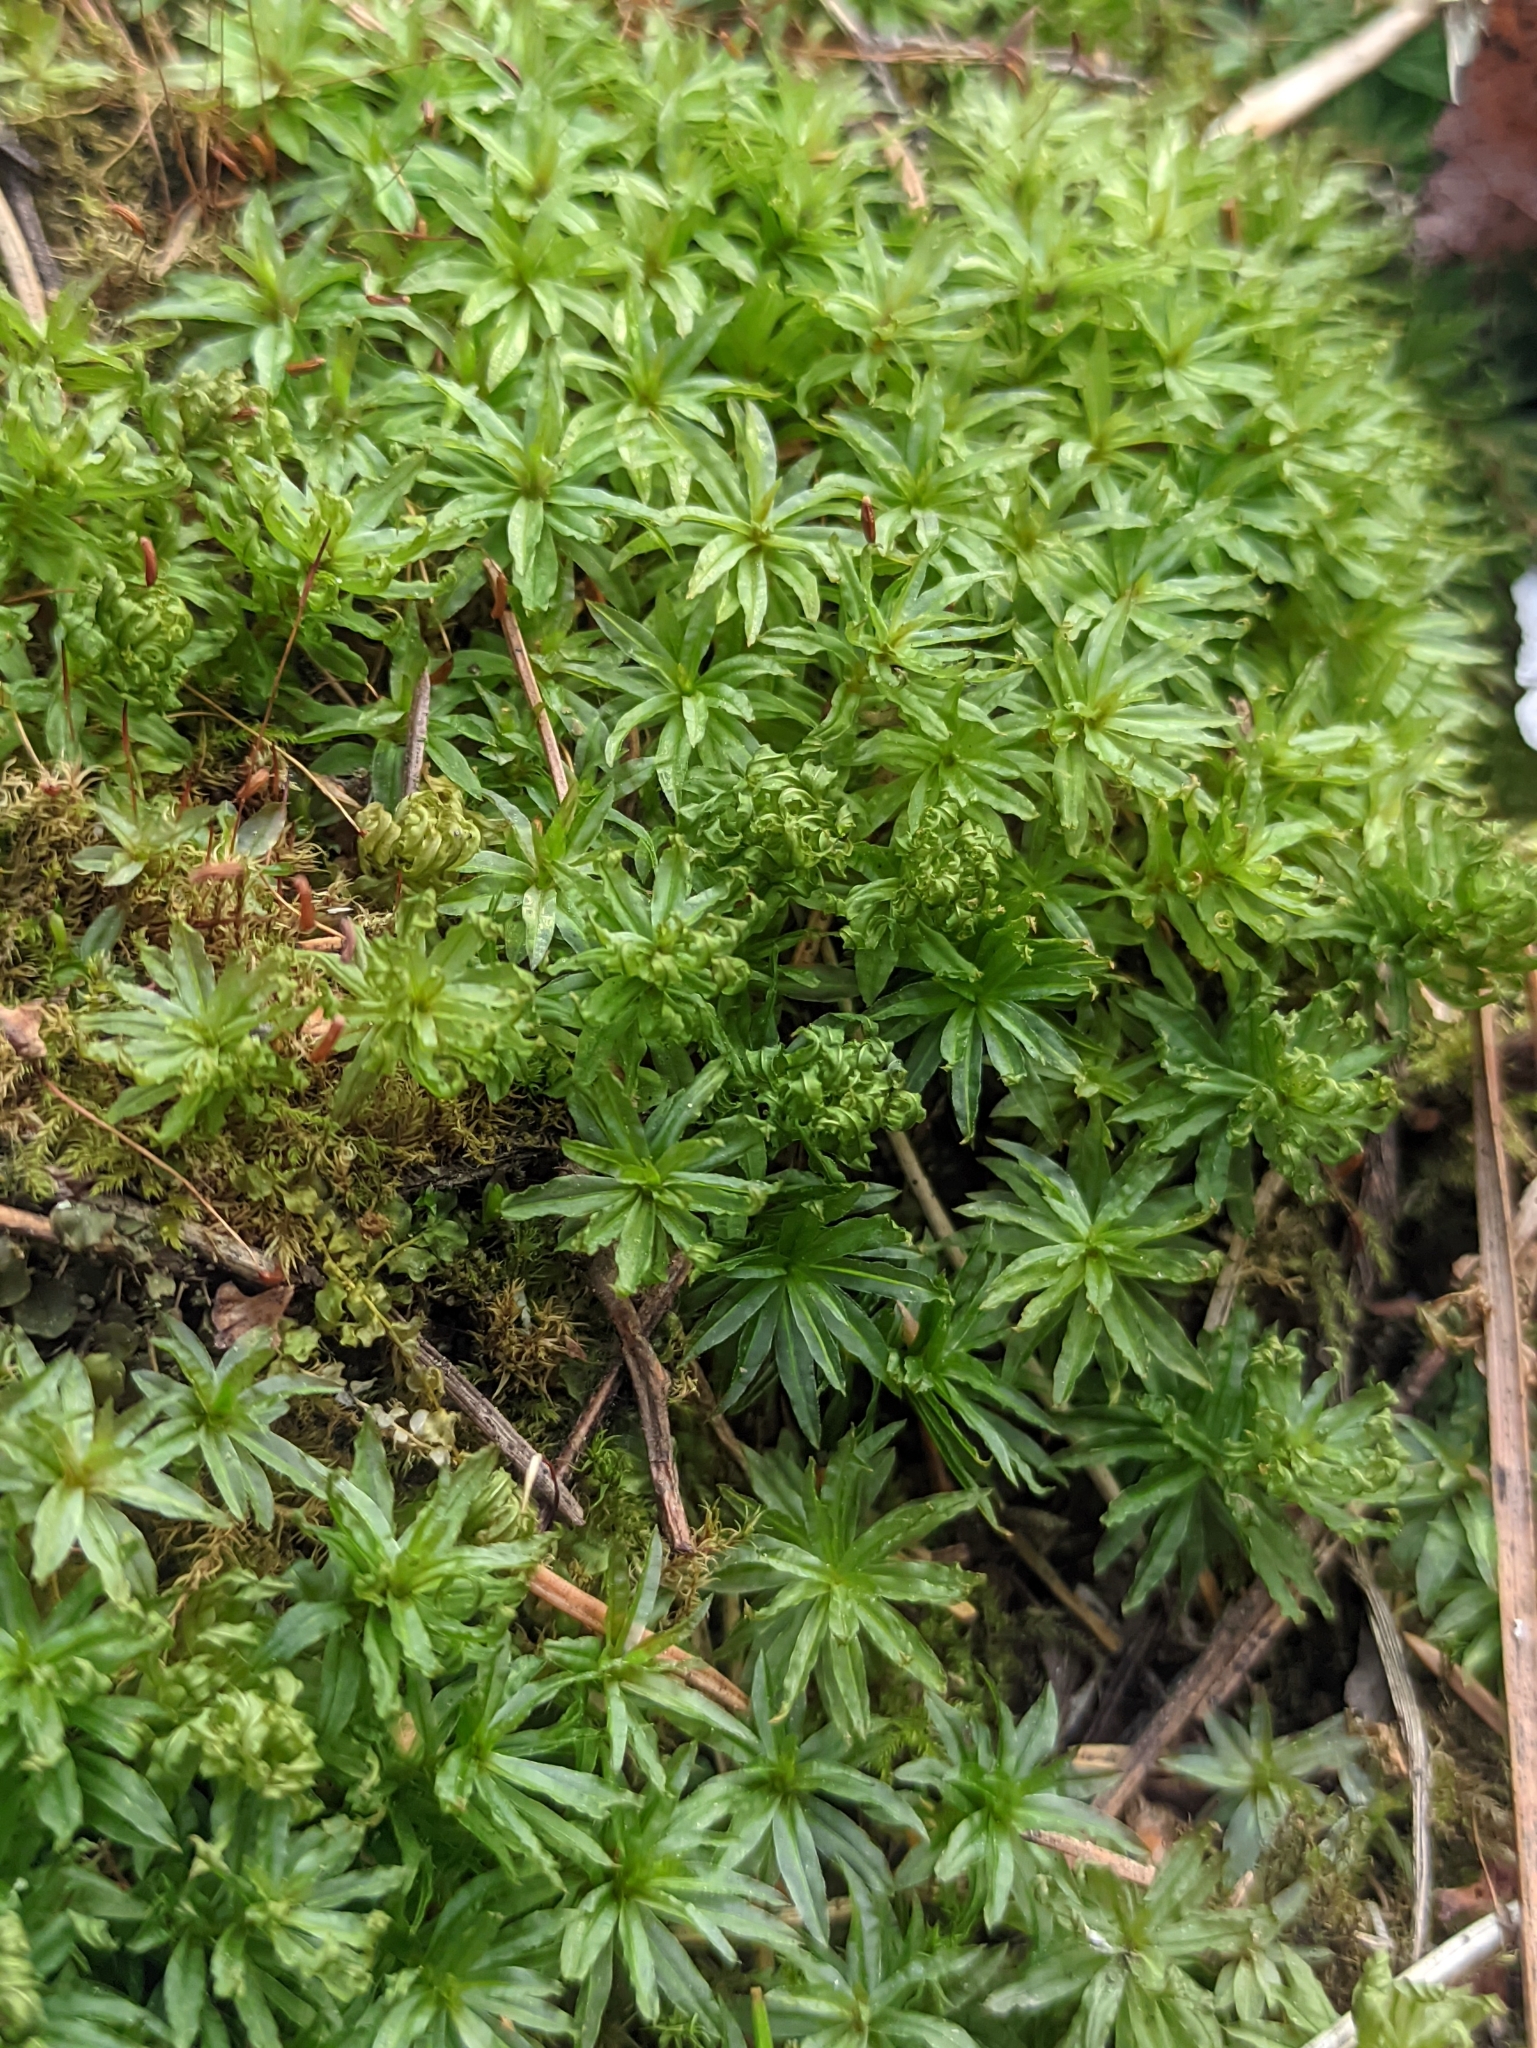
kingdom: Plantae
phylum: Bryophyta
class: Polytrichopsida
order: Polytrichales
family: Polytrichaceae
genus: Atrichum
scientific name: Atrichum undulatum
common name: Common smoothcap
